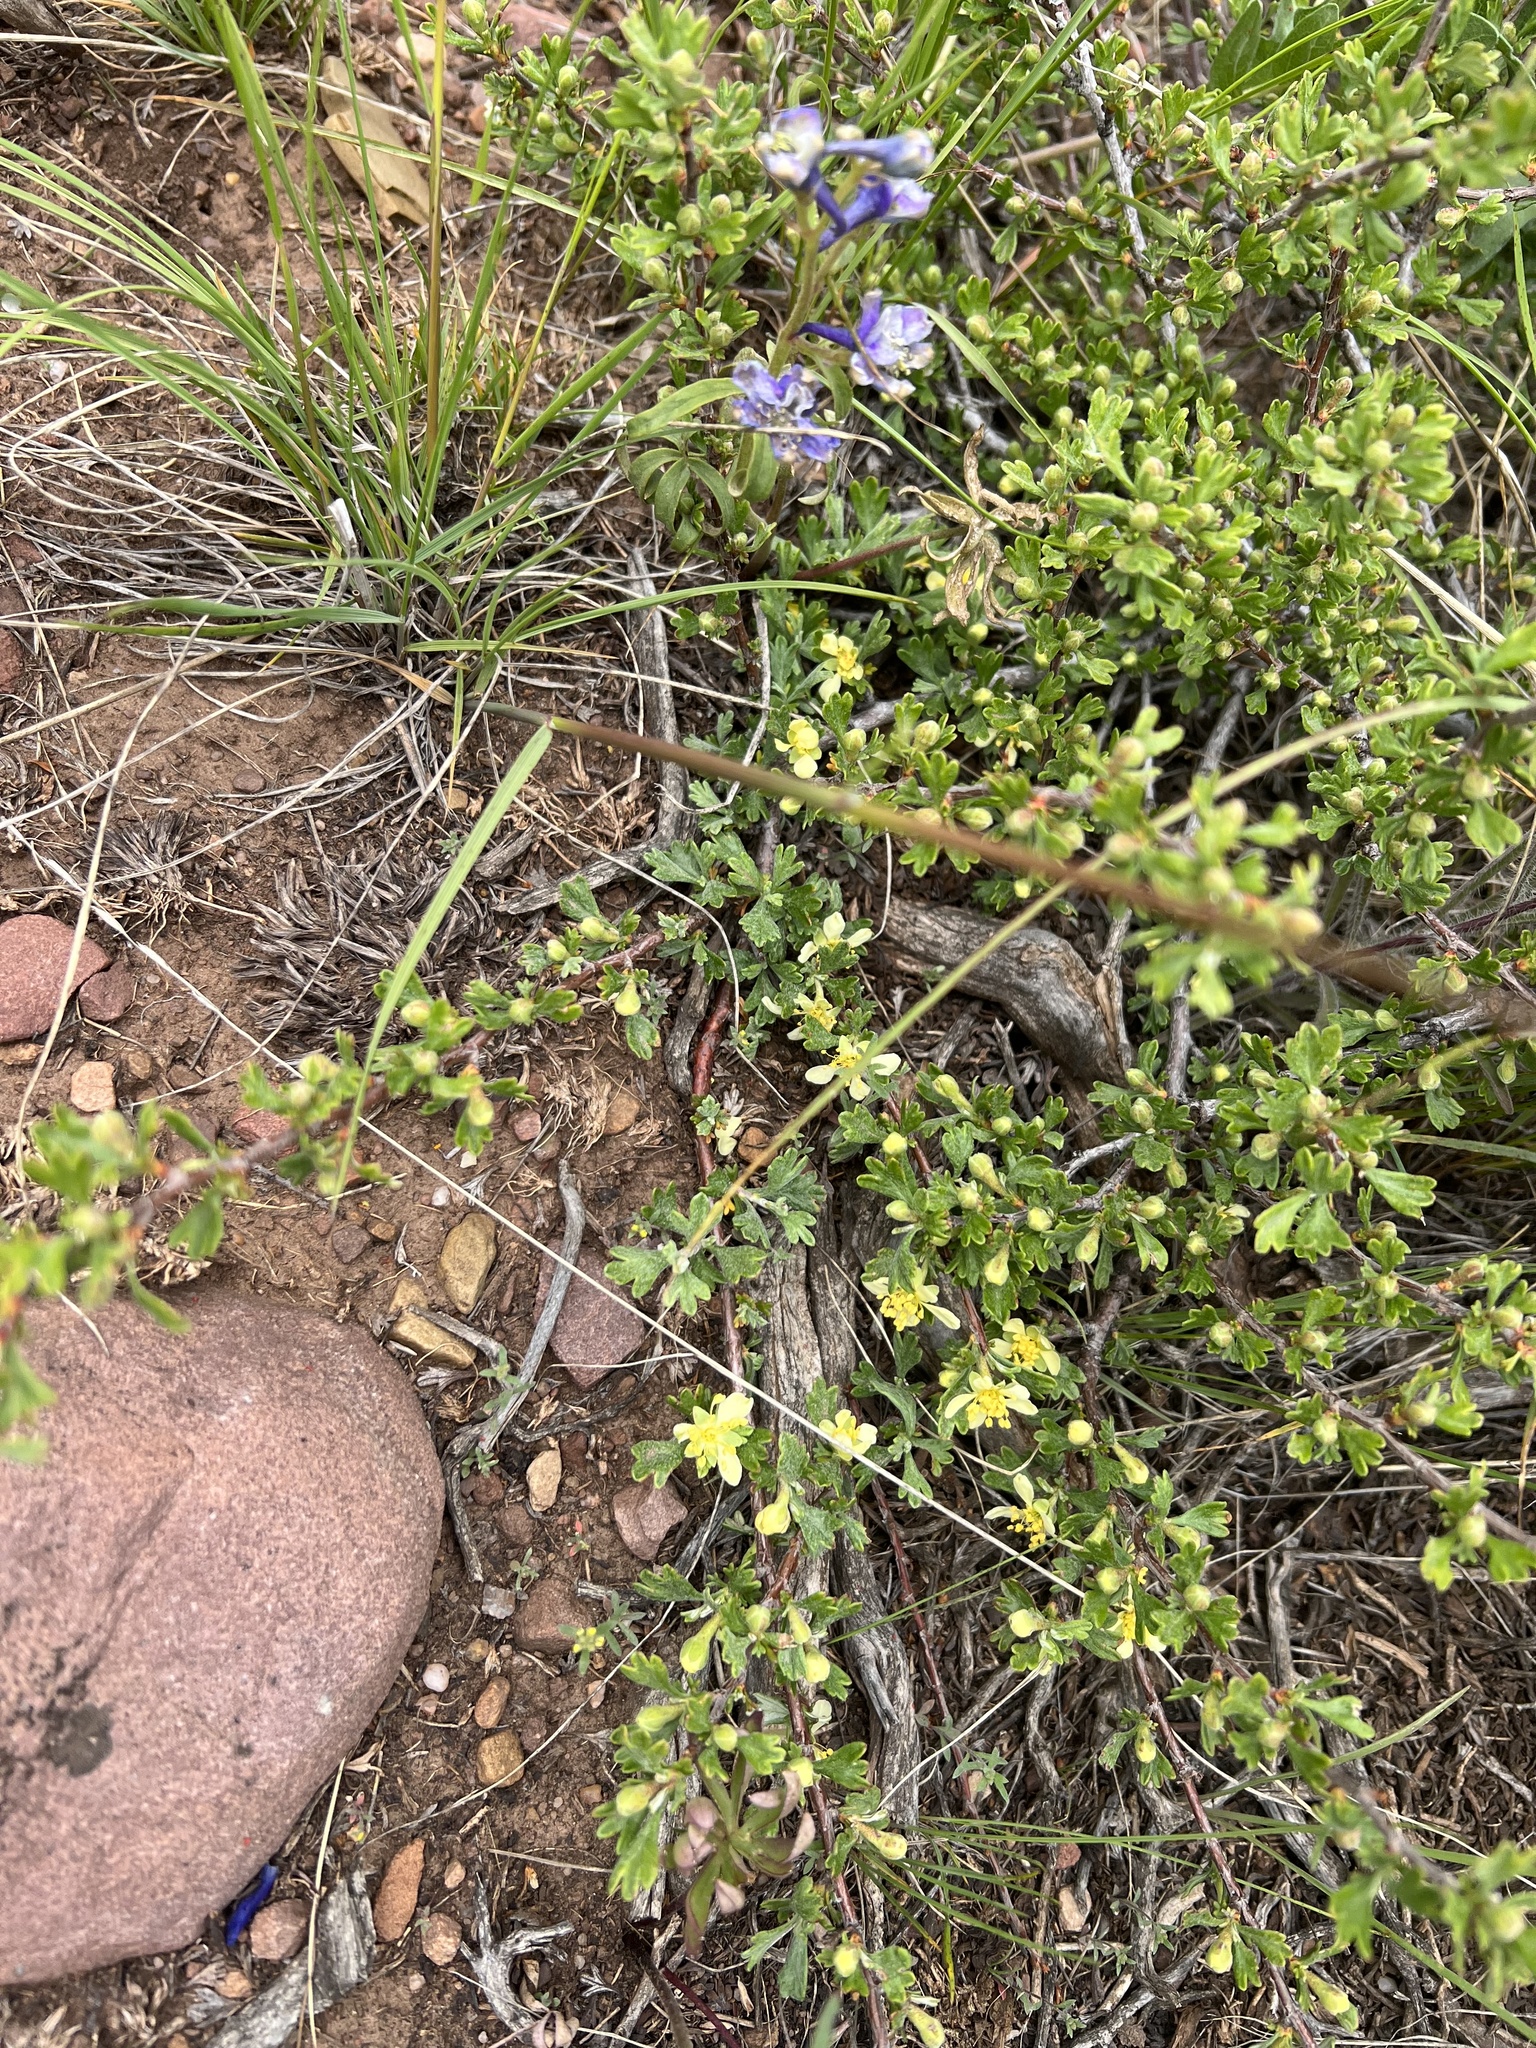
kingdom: Plantae
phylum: Tracheophyta
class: Magnoliopsida
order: Rosales
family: Rosaceae
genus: Purshia
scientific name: Purshia tridentata
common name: Antelope bitterbrush
